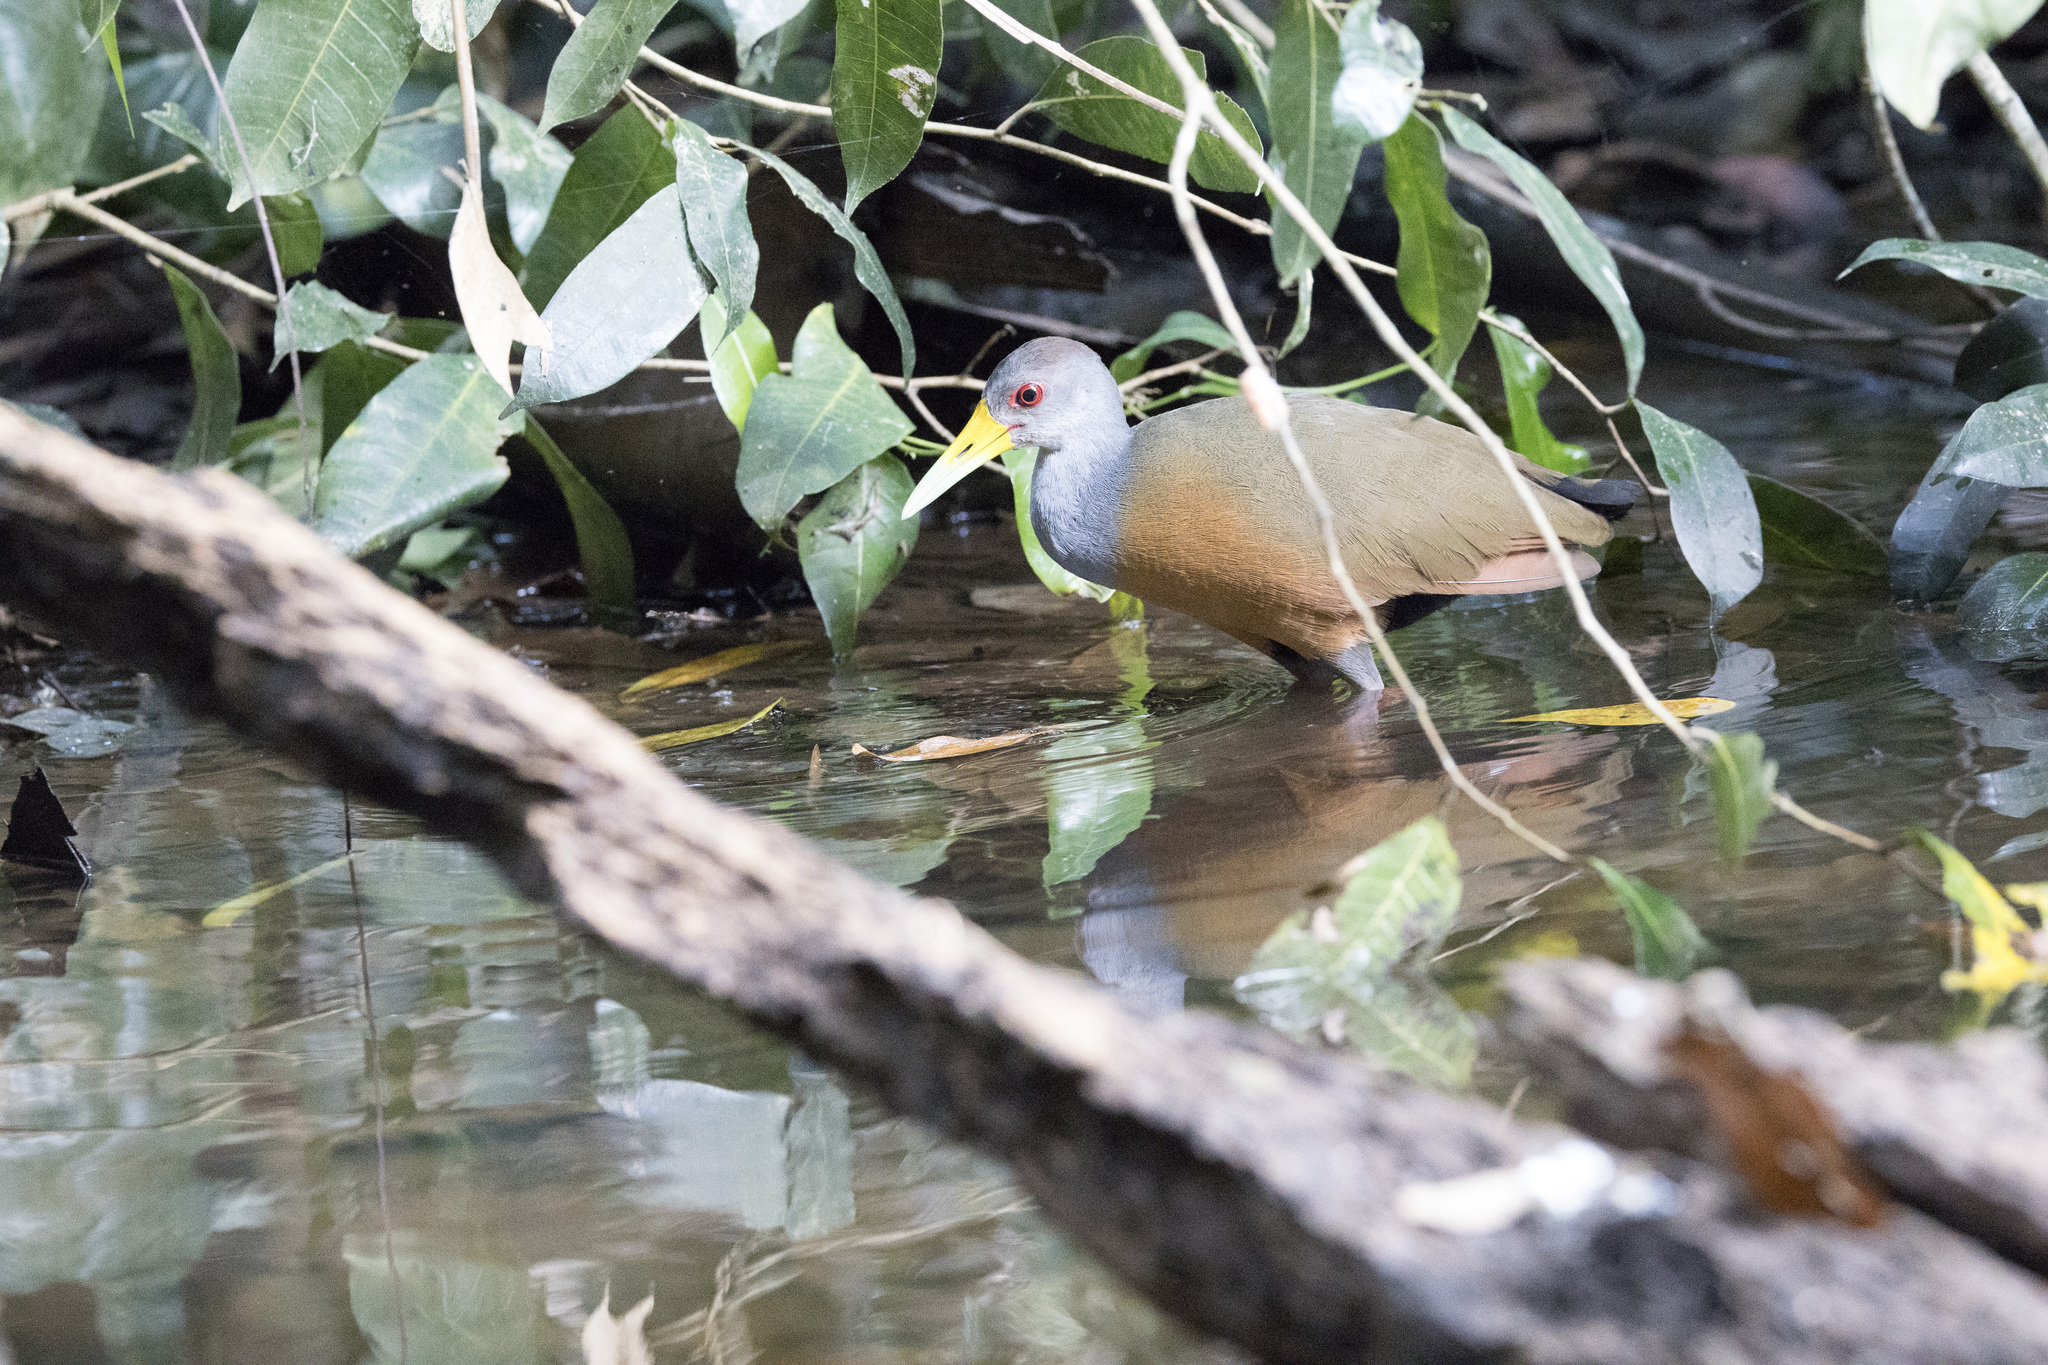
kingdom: Animalia
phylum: Chordata
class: Aves
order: Gruiformes
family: Rallidae
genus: Aramides
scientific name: Aramides cajanea
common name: Gray-necked wood-rail
